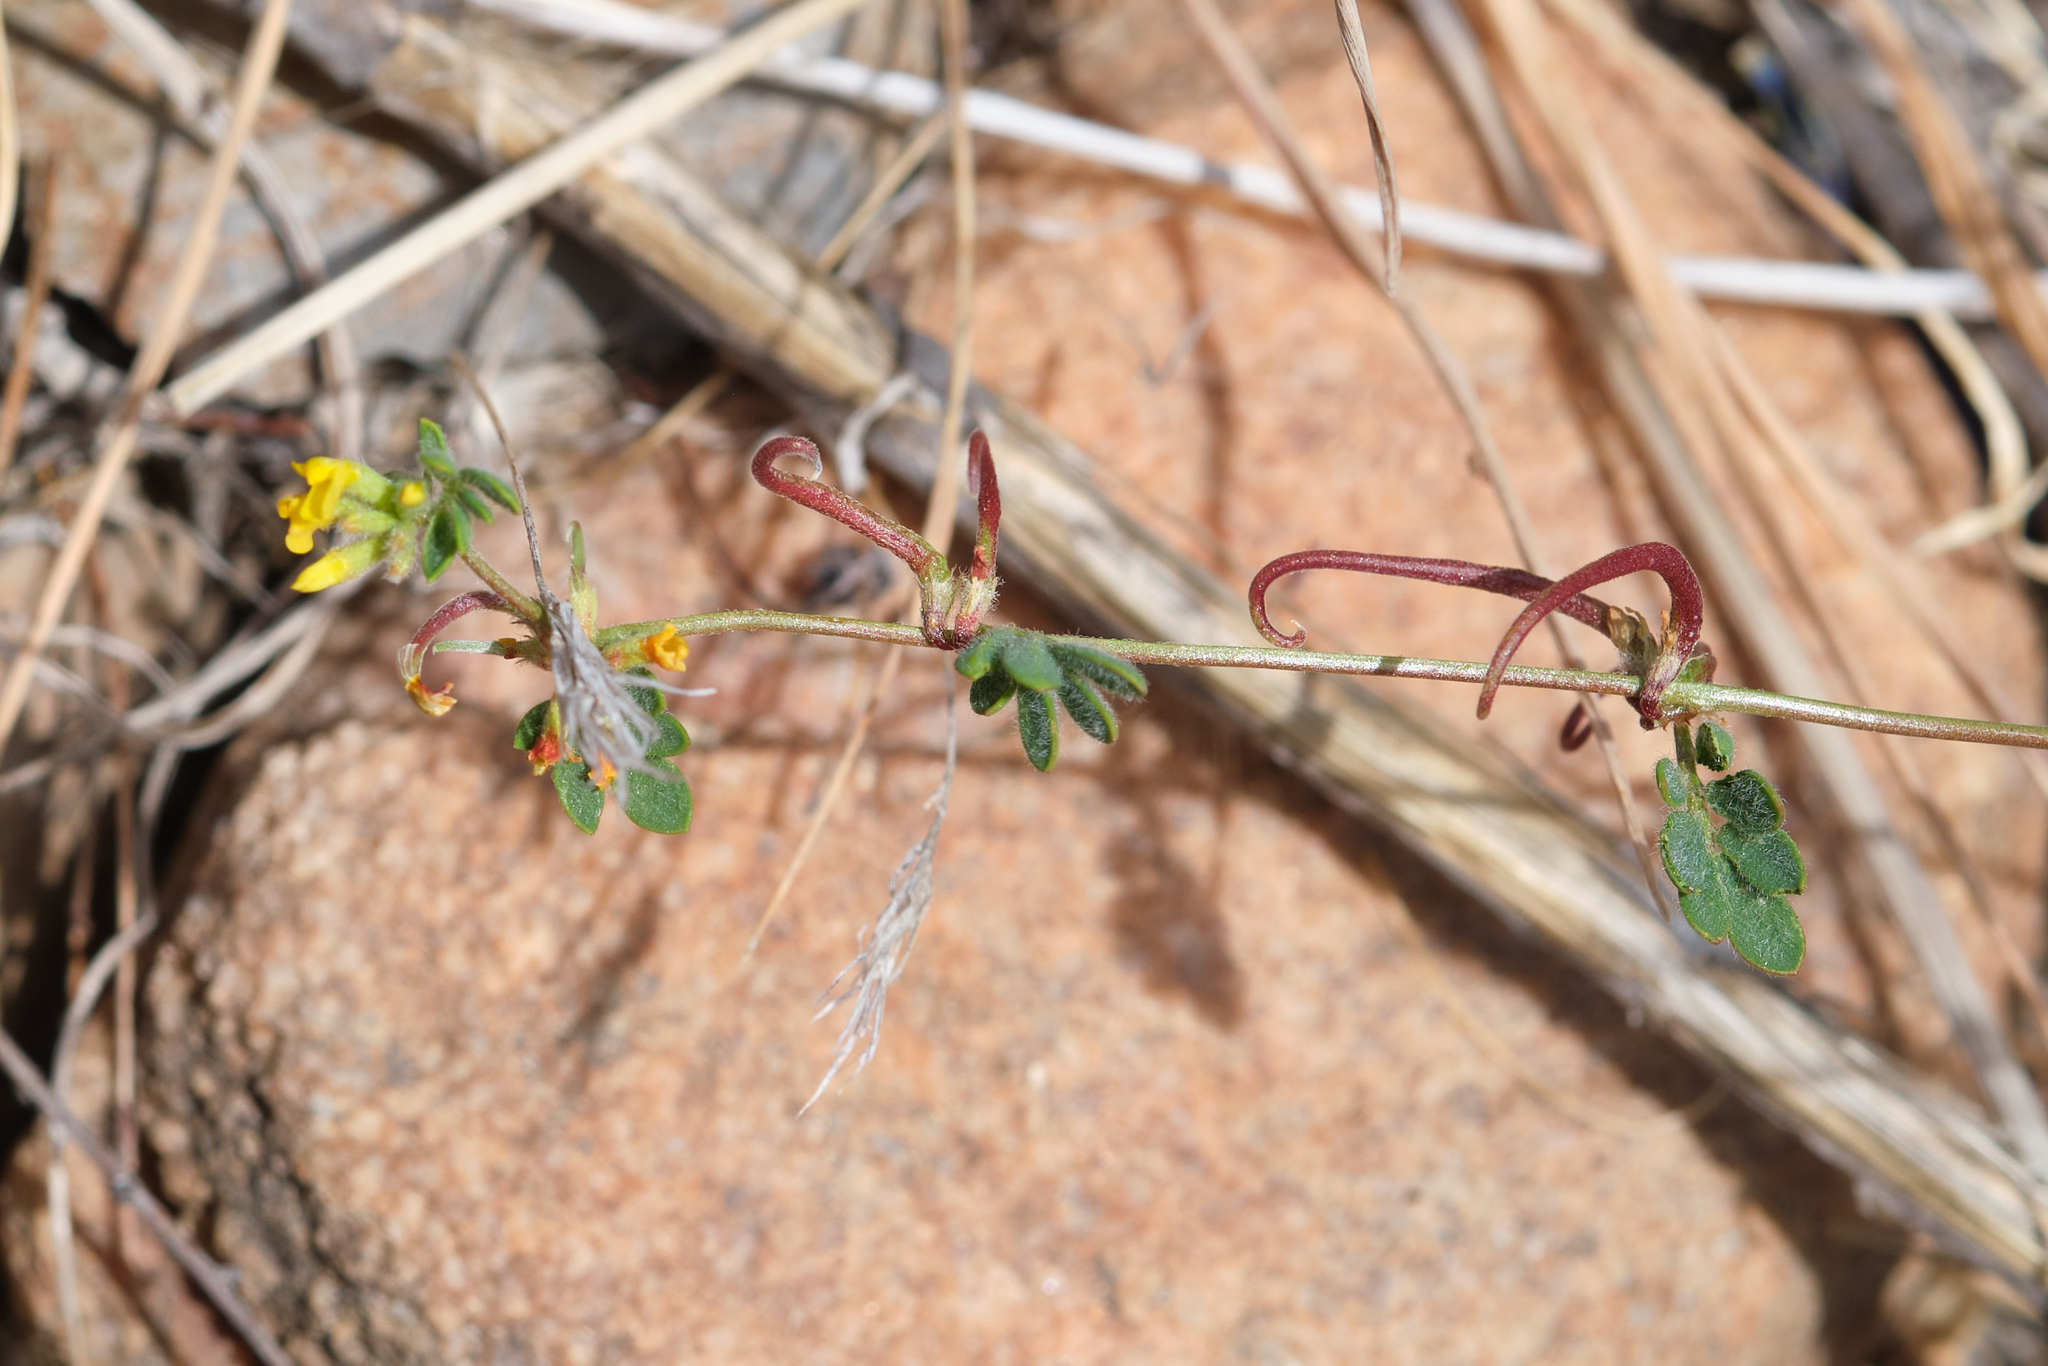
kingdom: Plantae
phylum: Tracheophyta
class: Magnoliopsida
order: Fabales
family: Fabaceae
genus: Acmispon
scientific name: Acmispon micranthus
